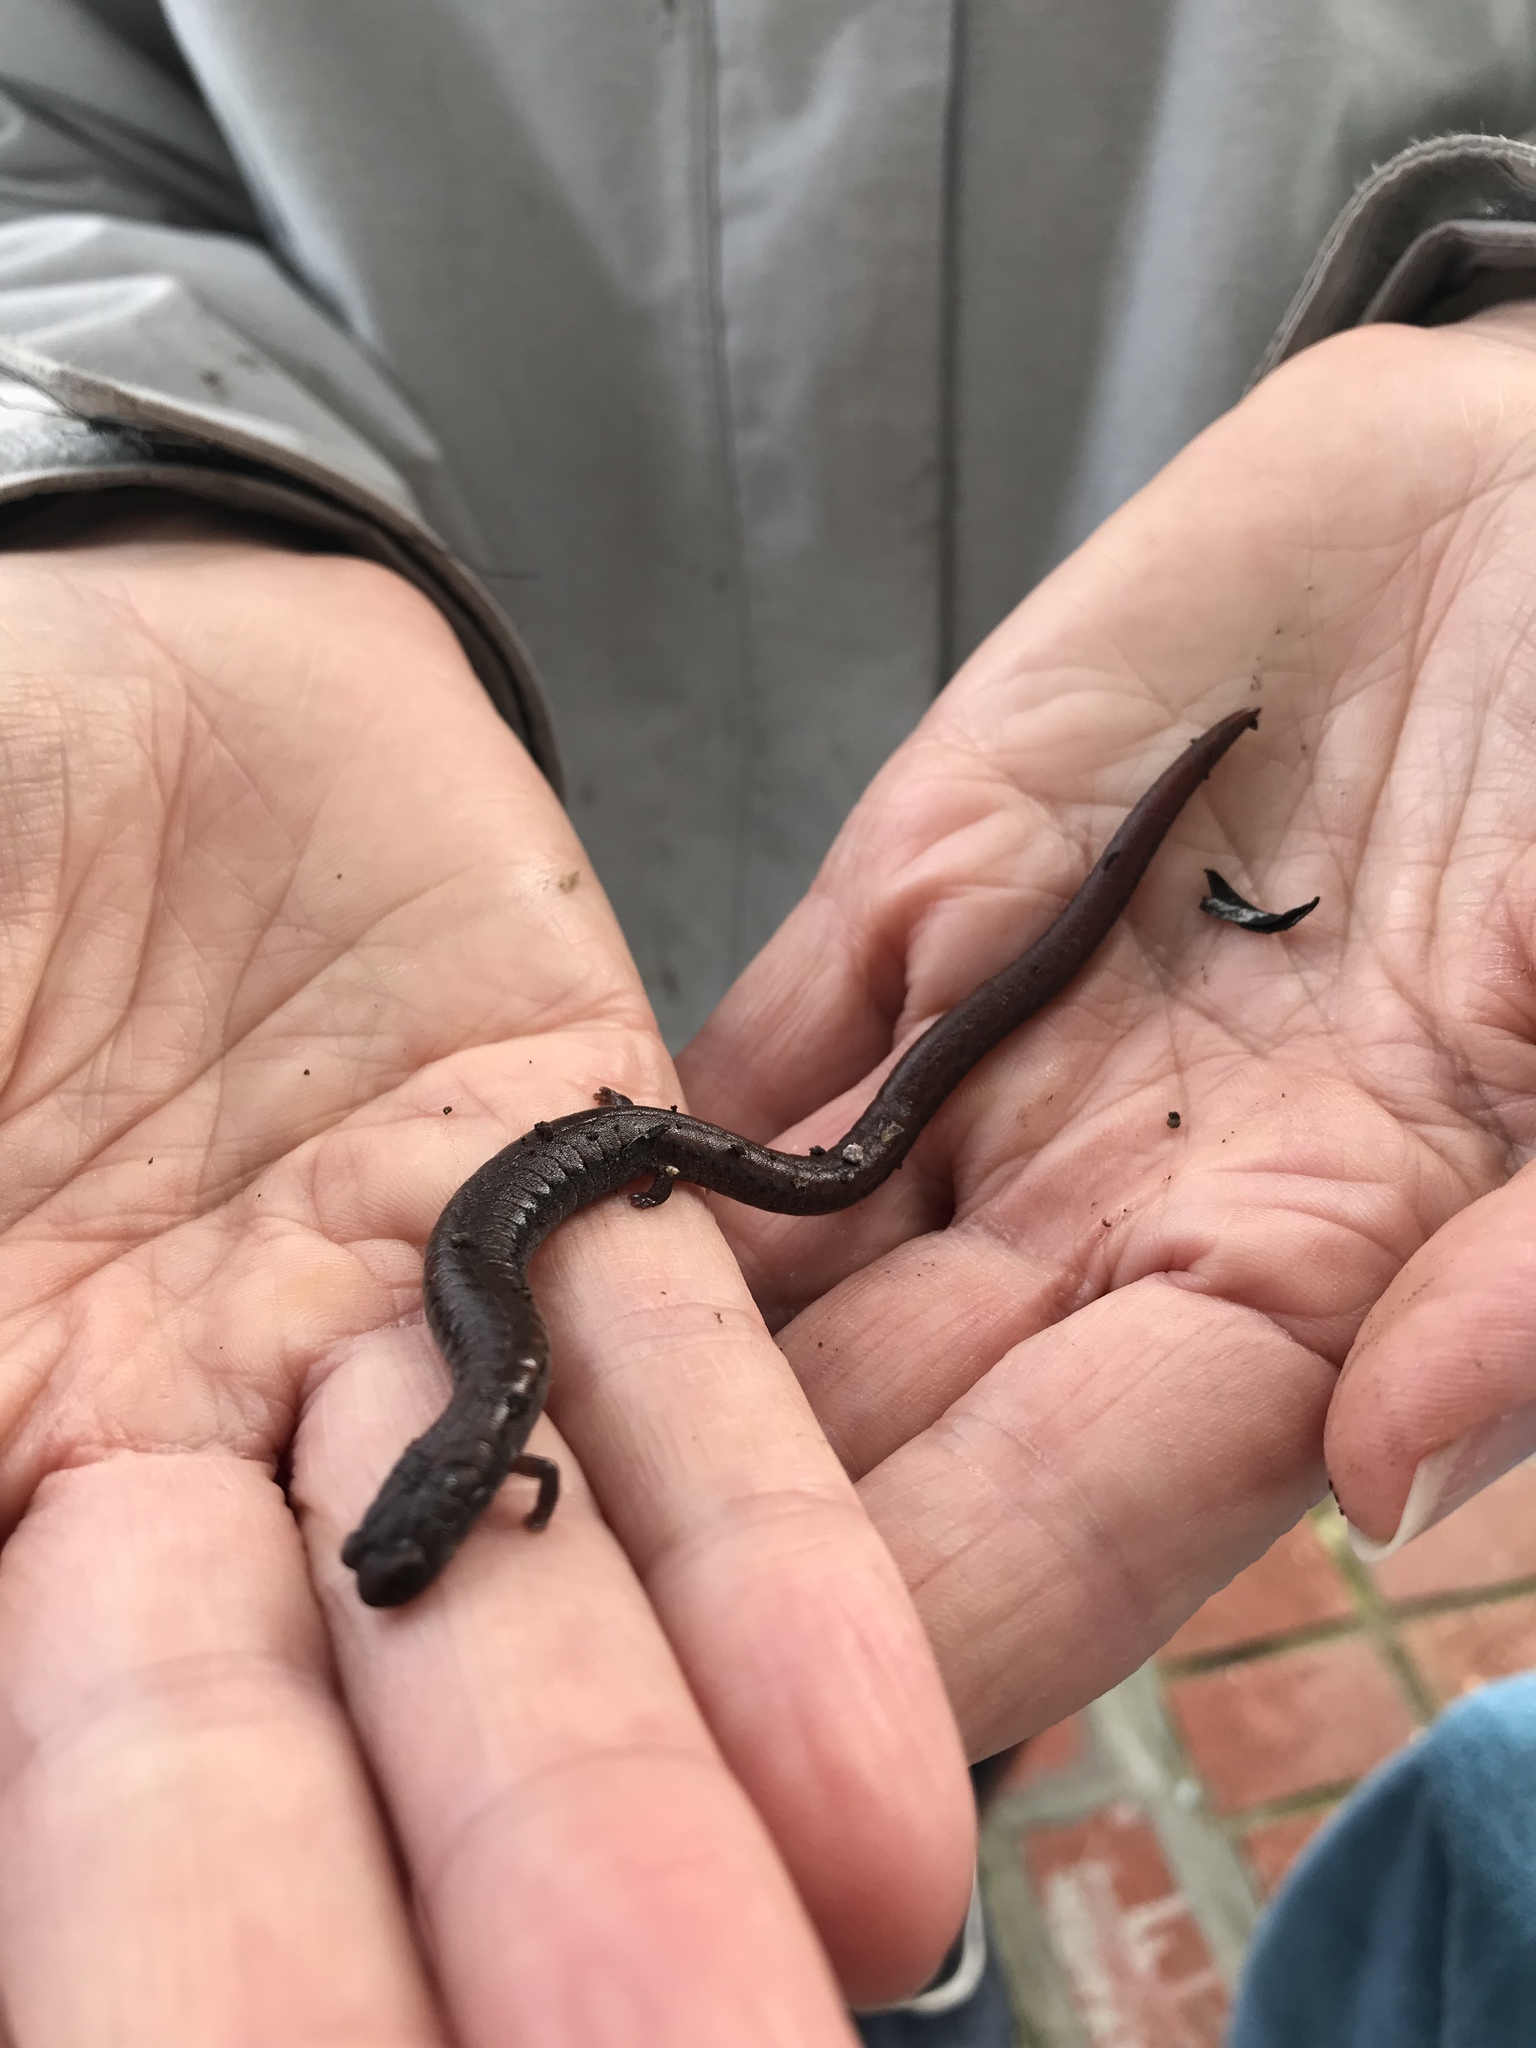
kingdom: Animalia
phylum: Chordata
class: Amphibia
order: Caudata
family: Plethodontidae
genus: Batrachoseps
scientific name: Batrachoseps attenuatus
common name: California slender salamander
